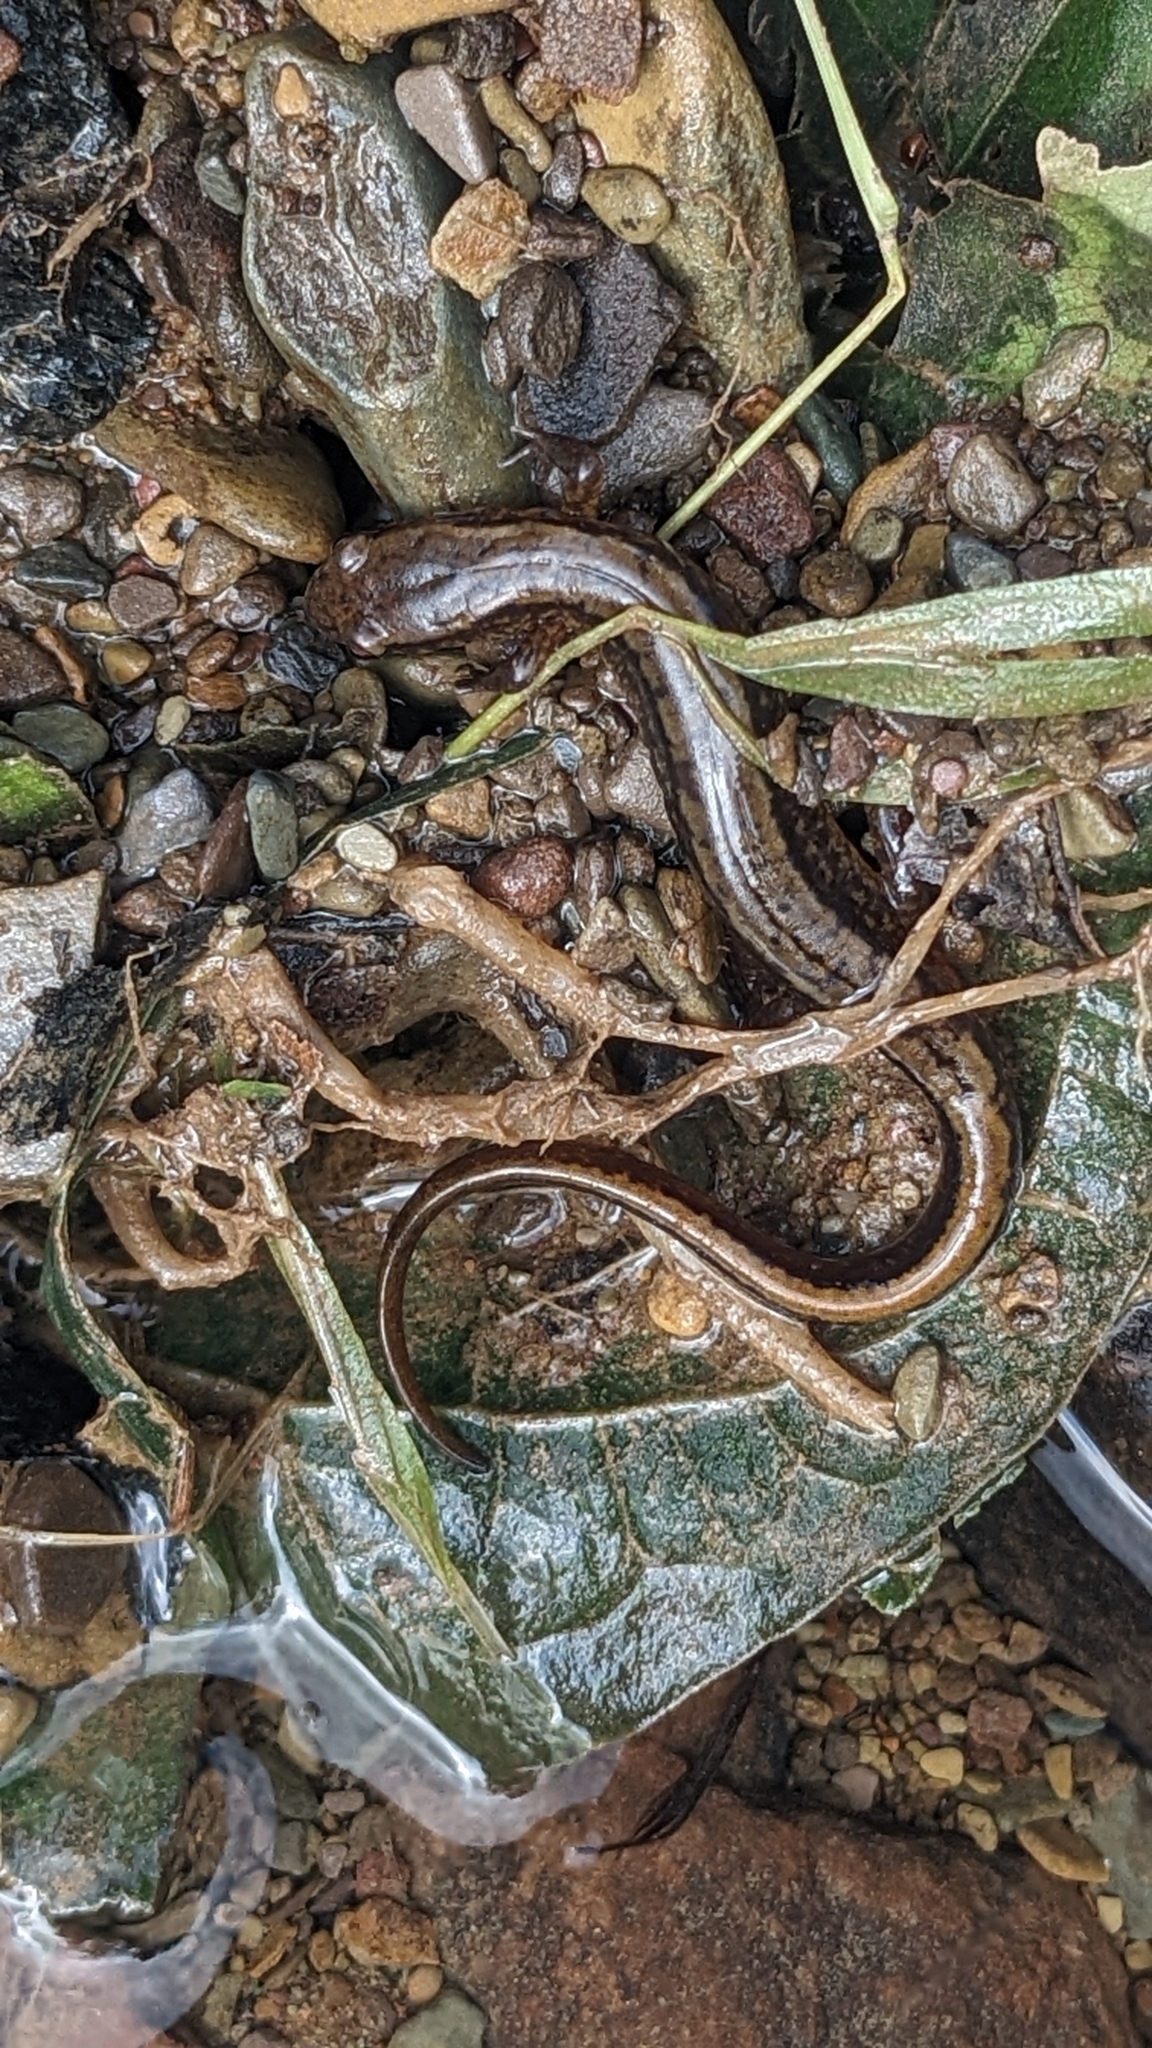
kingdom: Animalia
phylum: Chordata
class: Amphibia
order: Caudata
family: Plethodontidae
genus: Eurycea
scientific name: Eurycea bislineata
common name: Northern two-lined salamander
